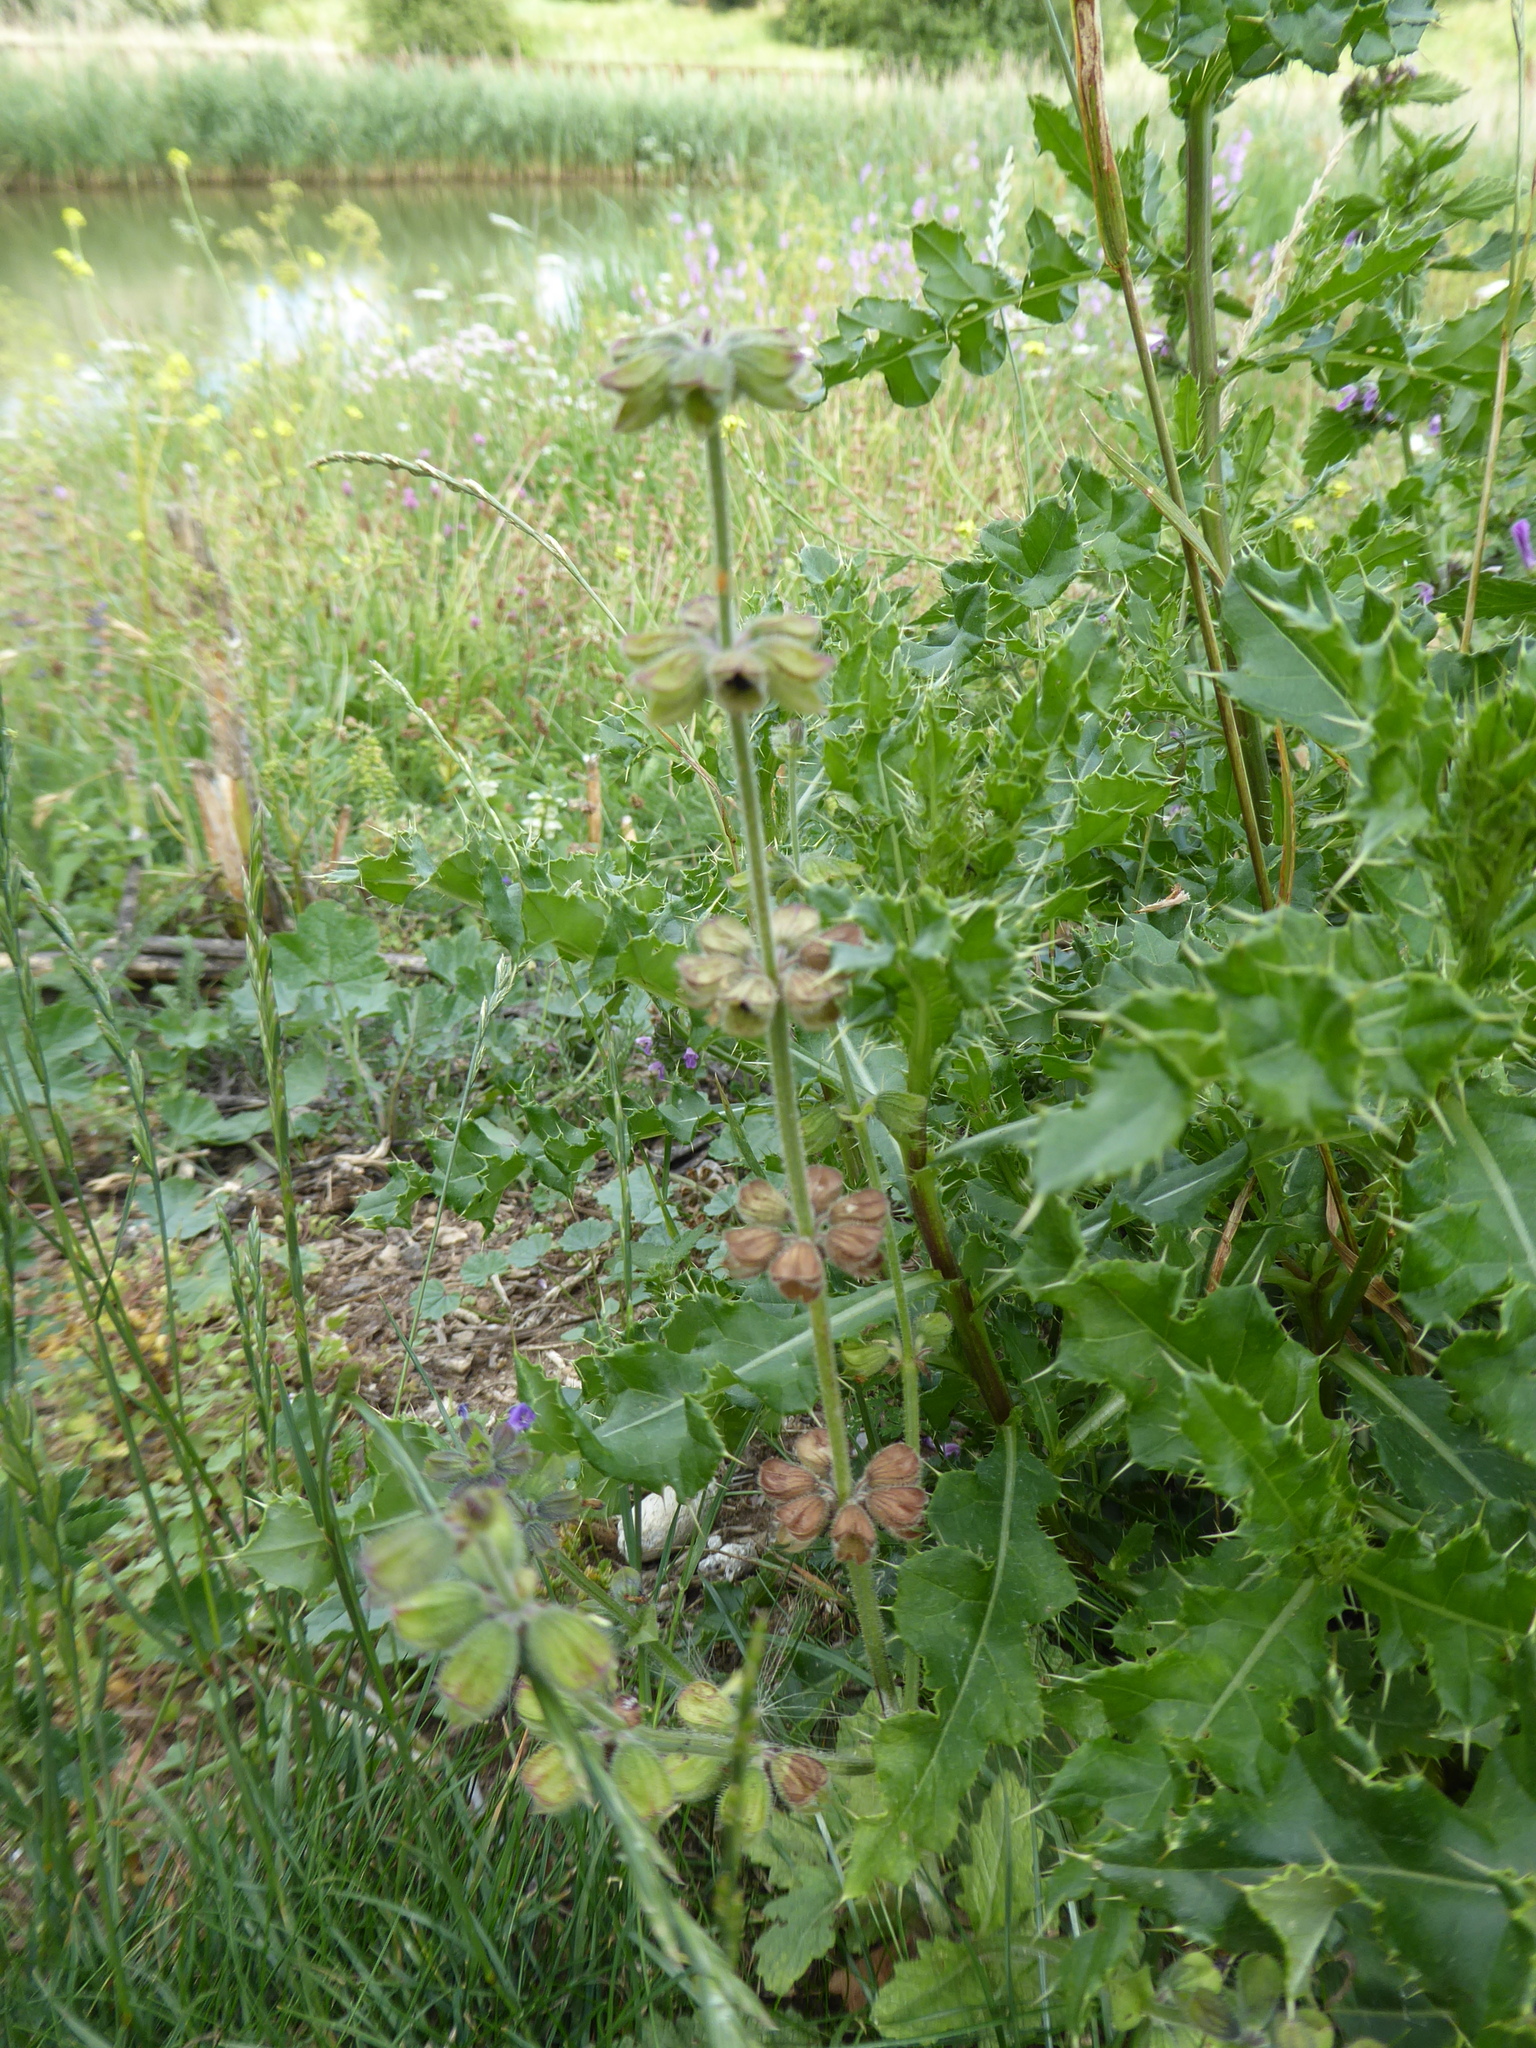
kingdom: Plantae
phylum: Tracheophyta
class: Magnoliopsida
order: Lamiales
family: Lamiaceae
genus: Salvia
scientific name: Salvia verbenaca
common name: Wild clary
